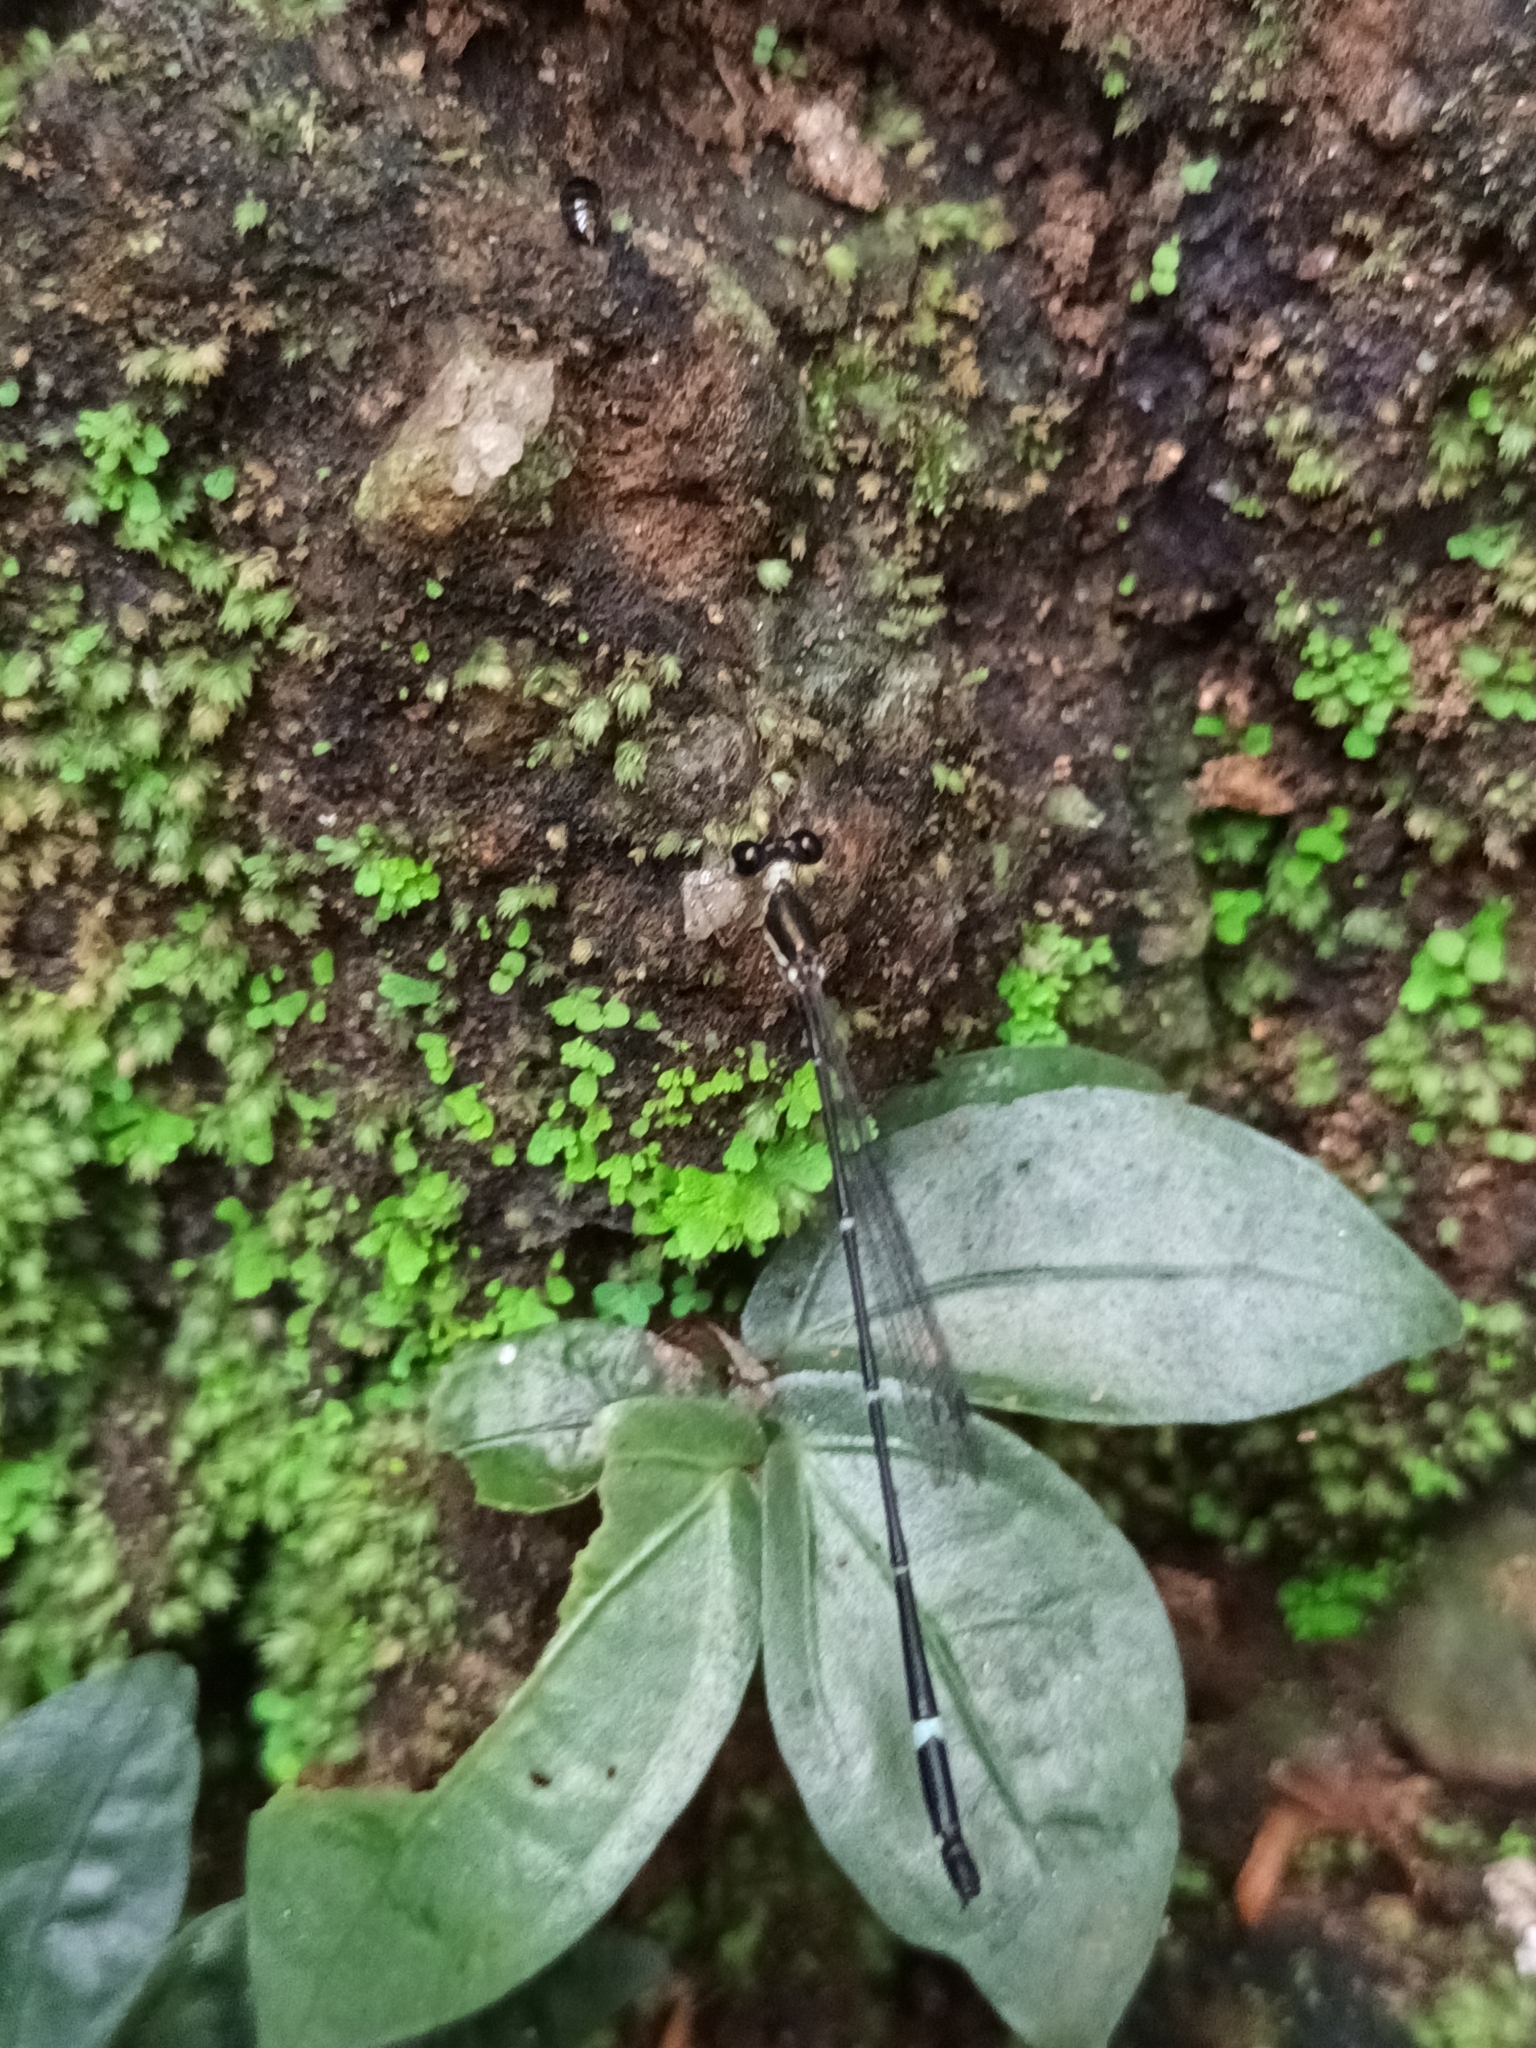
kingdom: Animalia
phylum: Arthropoda
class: Insecta
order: Odonata
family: Platystictidae
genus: Protosticta
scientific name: Protosticta gravelyi
